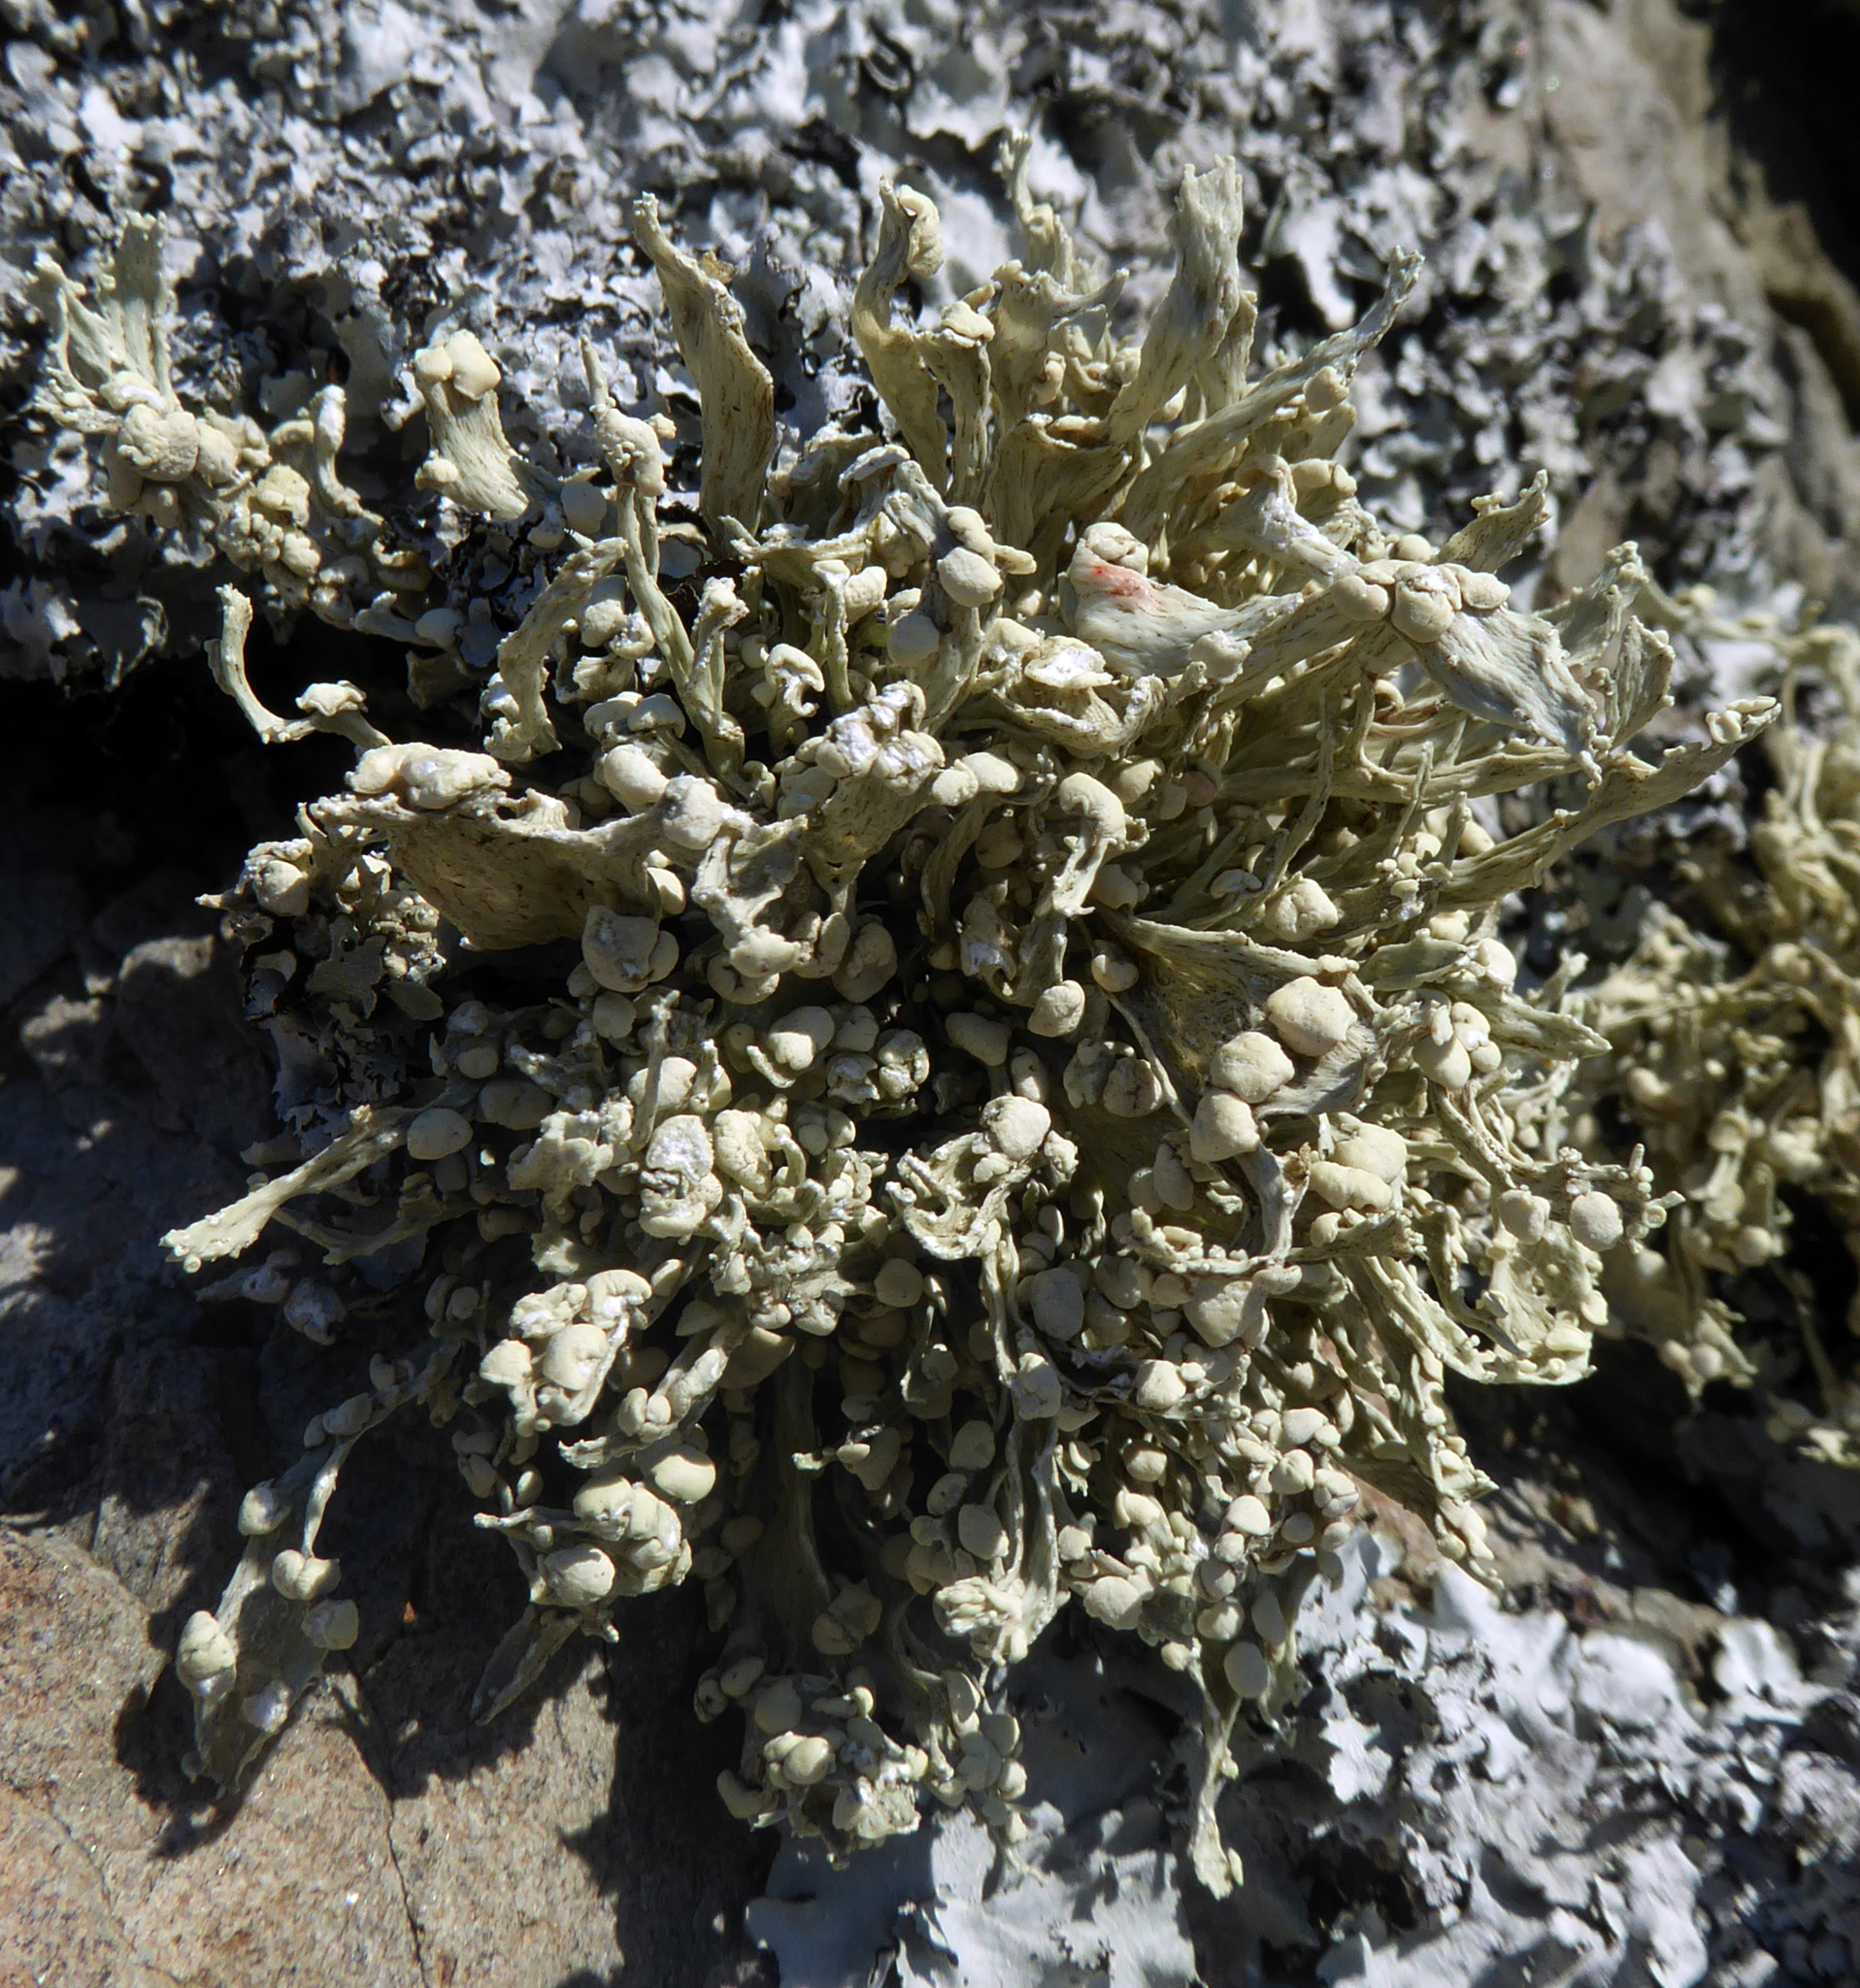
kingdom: Fungi
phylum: Ascomycota
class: Lecanoromycetes
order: Lecanorales
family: Ramalinaceae
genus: Ramalina
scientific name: Ramalina celastri
